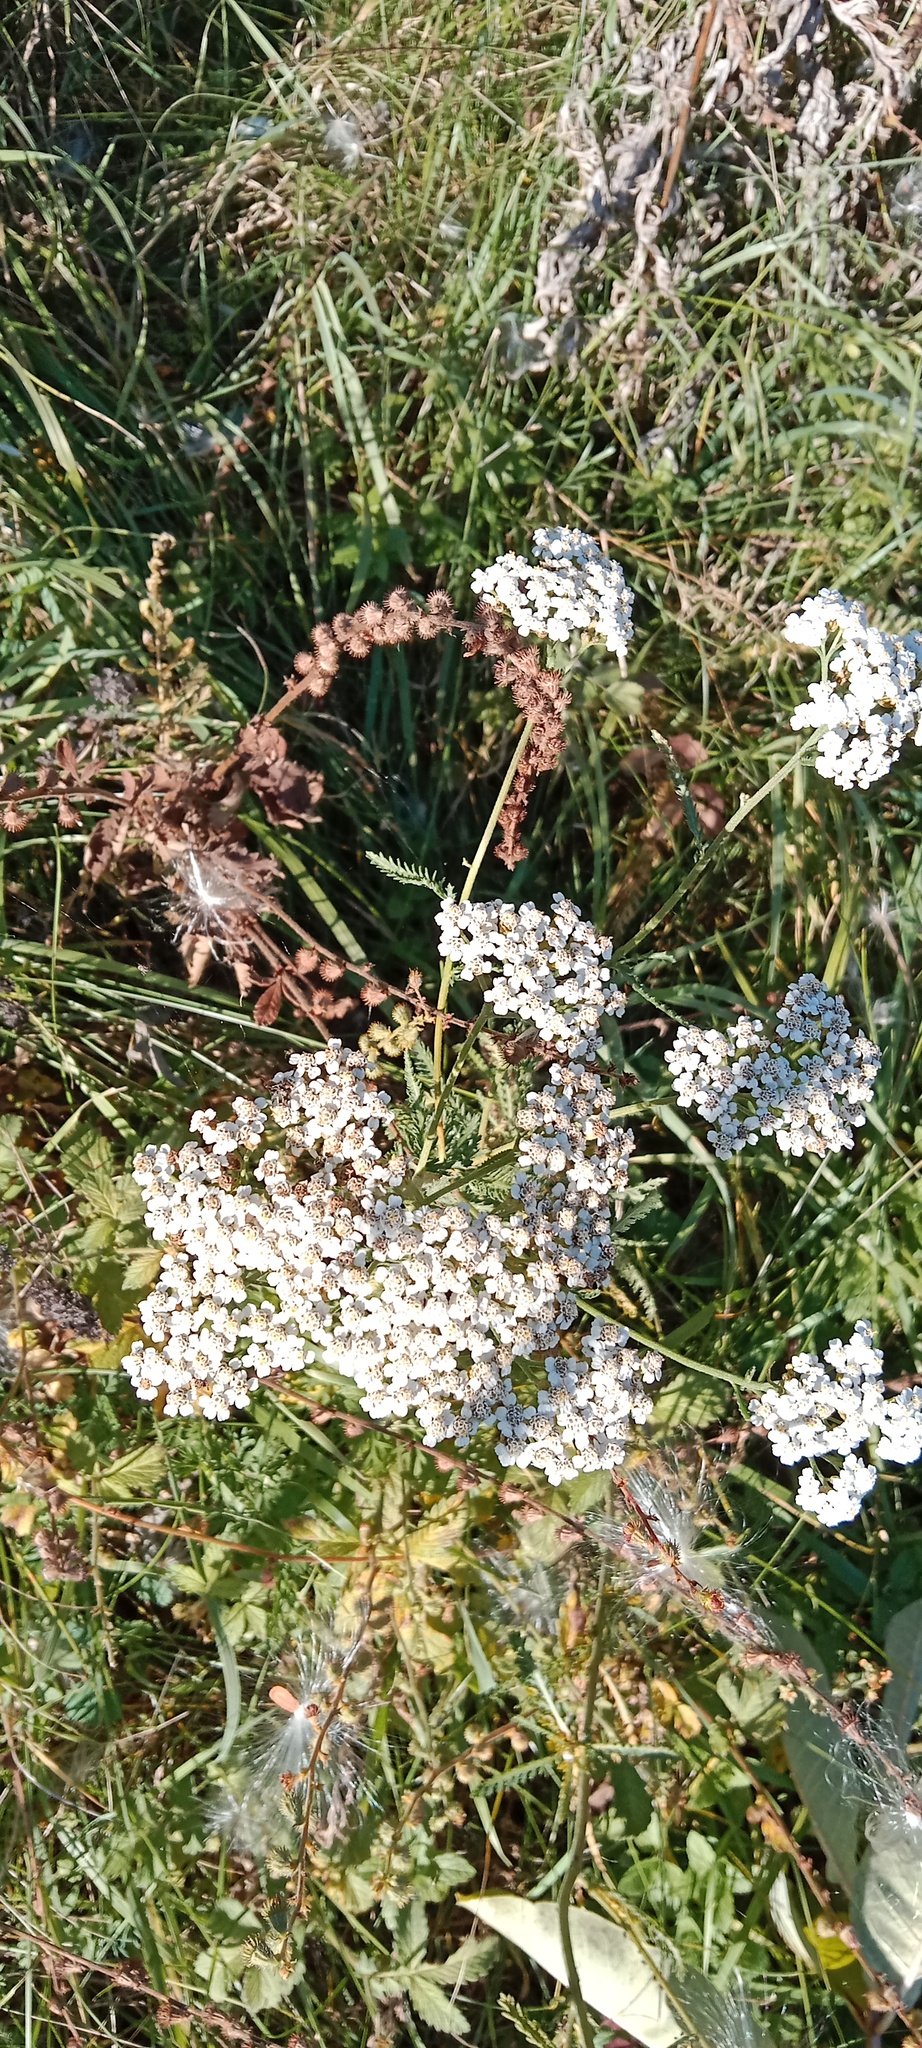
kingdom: Plantae
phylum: Tracheophyta
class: Magnoliopsida
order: Asterales
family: Asteraceae
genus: Achillea
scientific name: Achillea millefolium
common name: Yarrow
